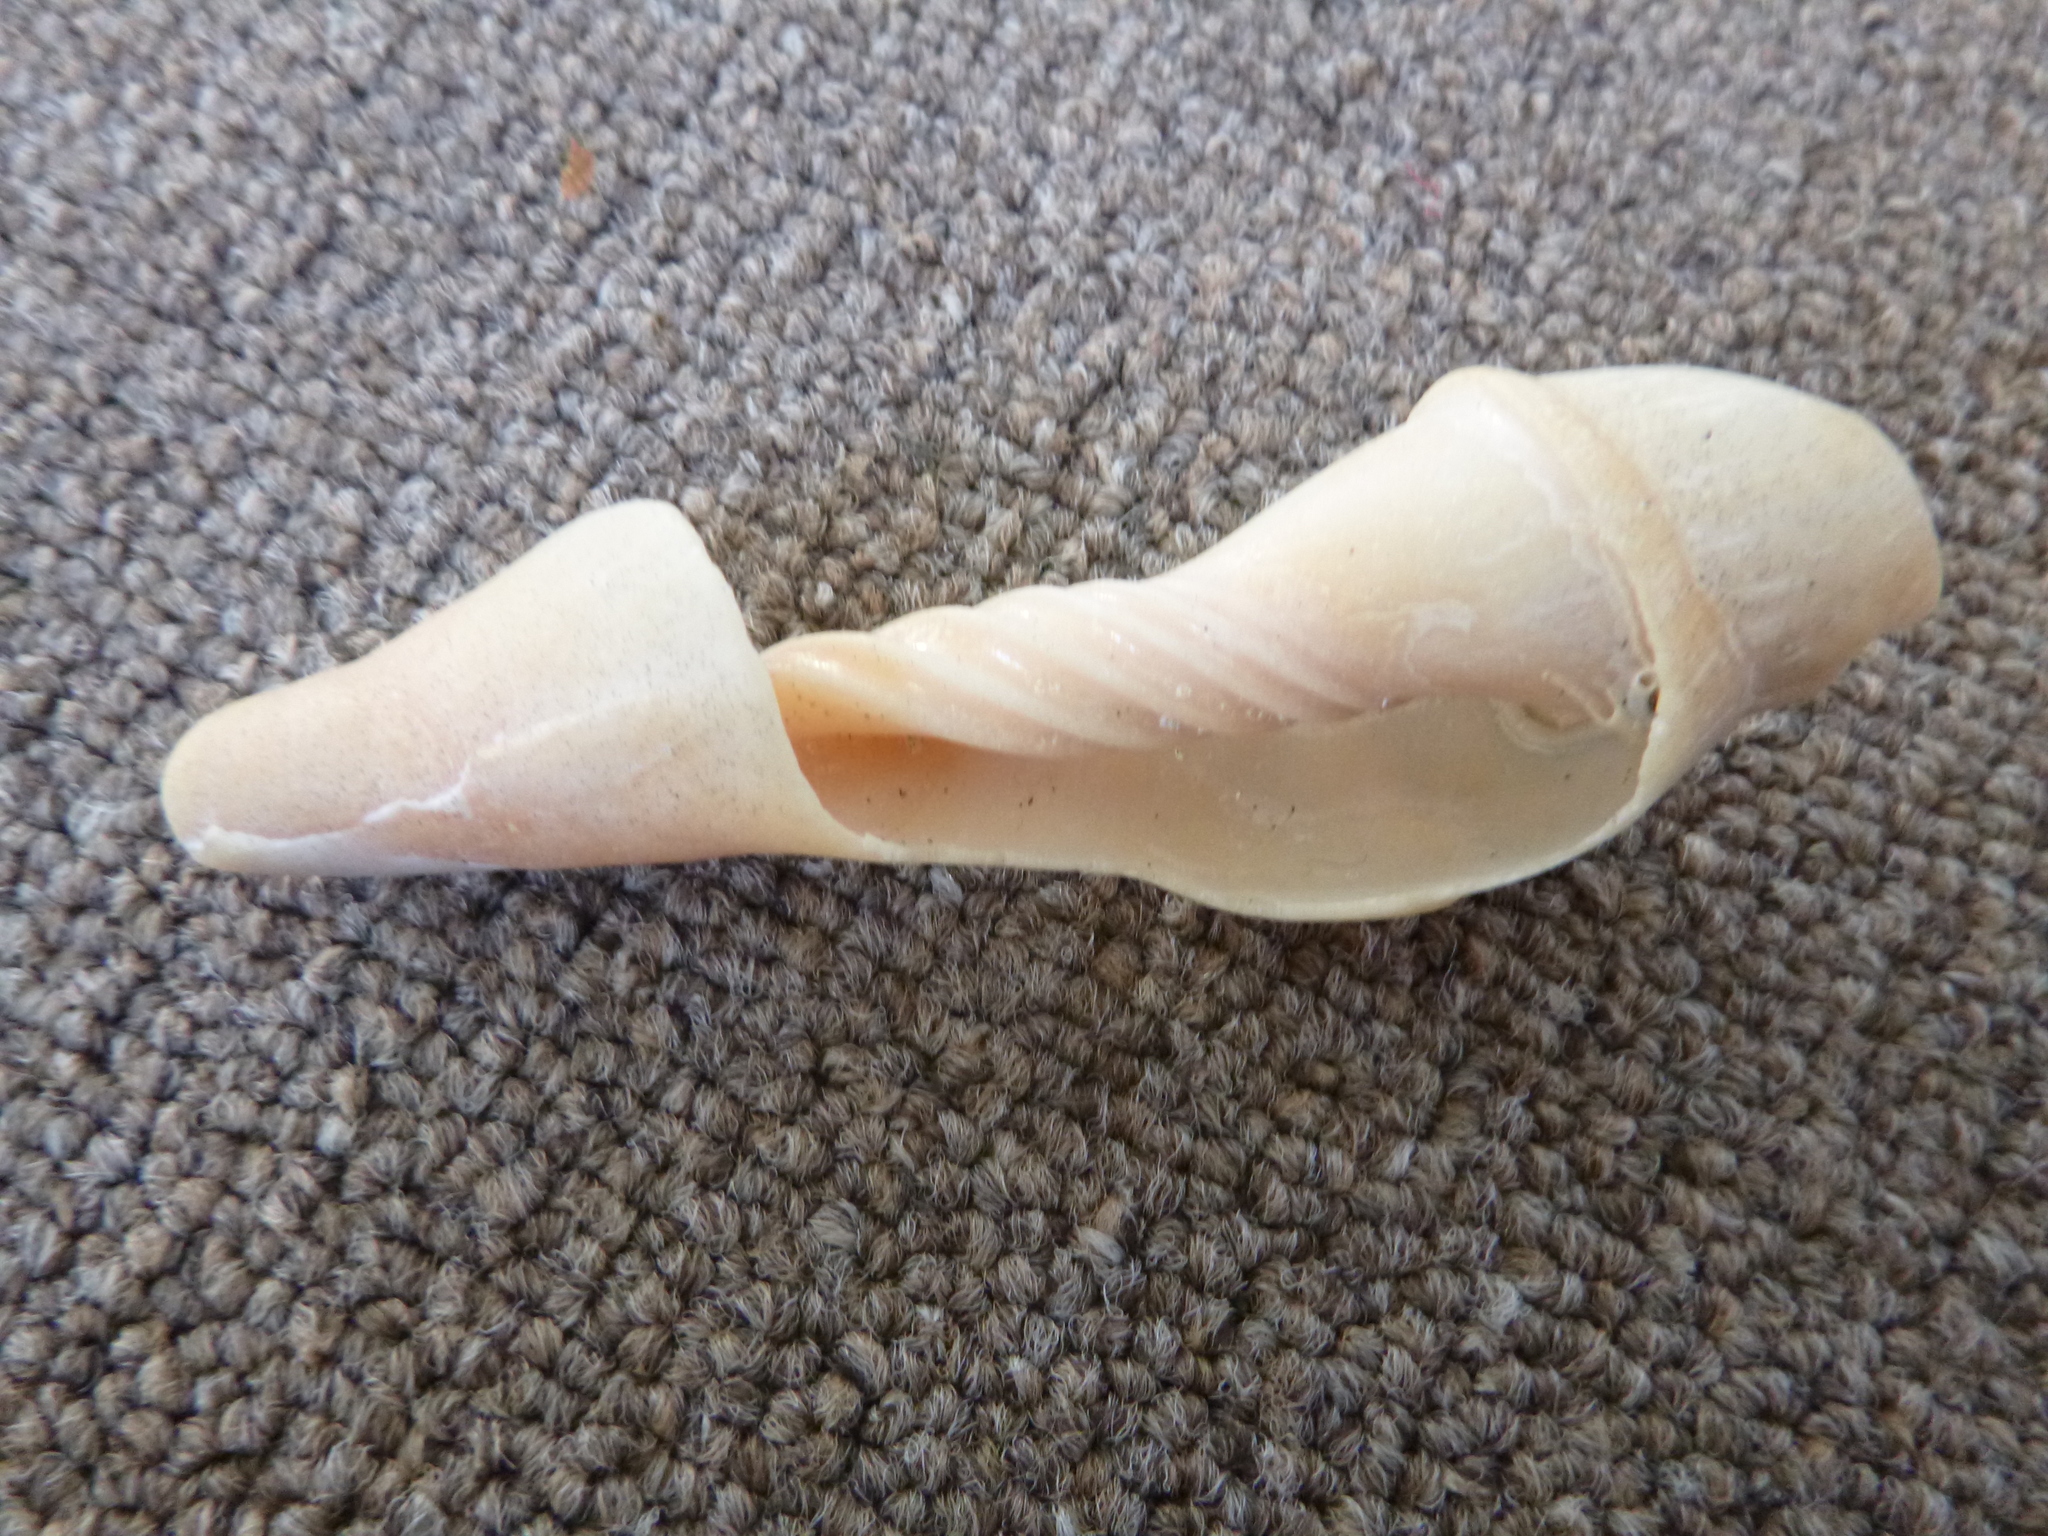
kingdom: Animalia
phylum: Mollusca
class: Gastropoda
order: Neogastropoda
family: Volutidae
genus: Alcithoe
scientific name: Alcithoe arabica
